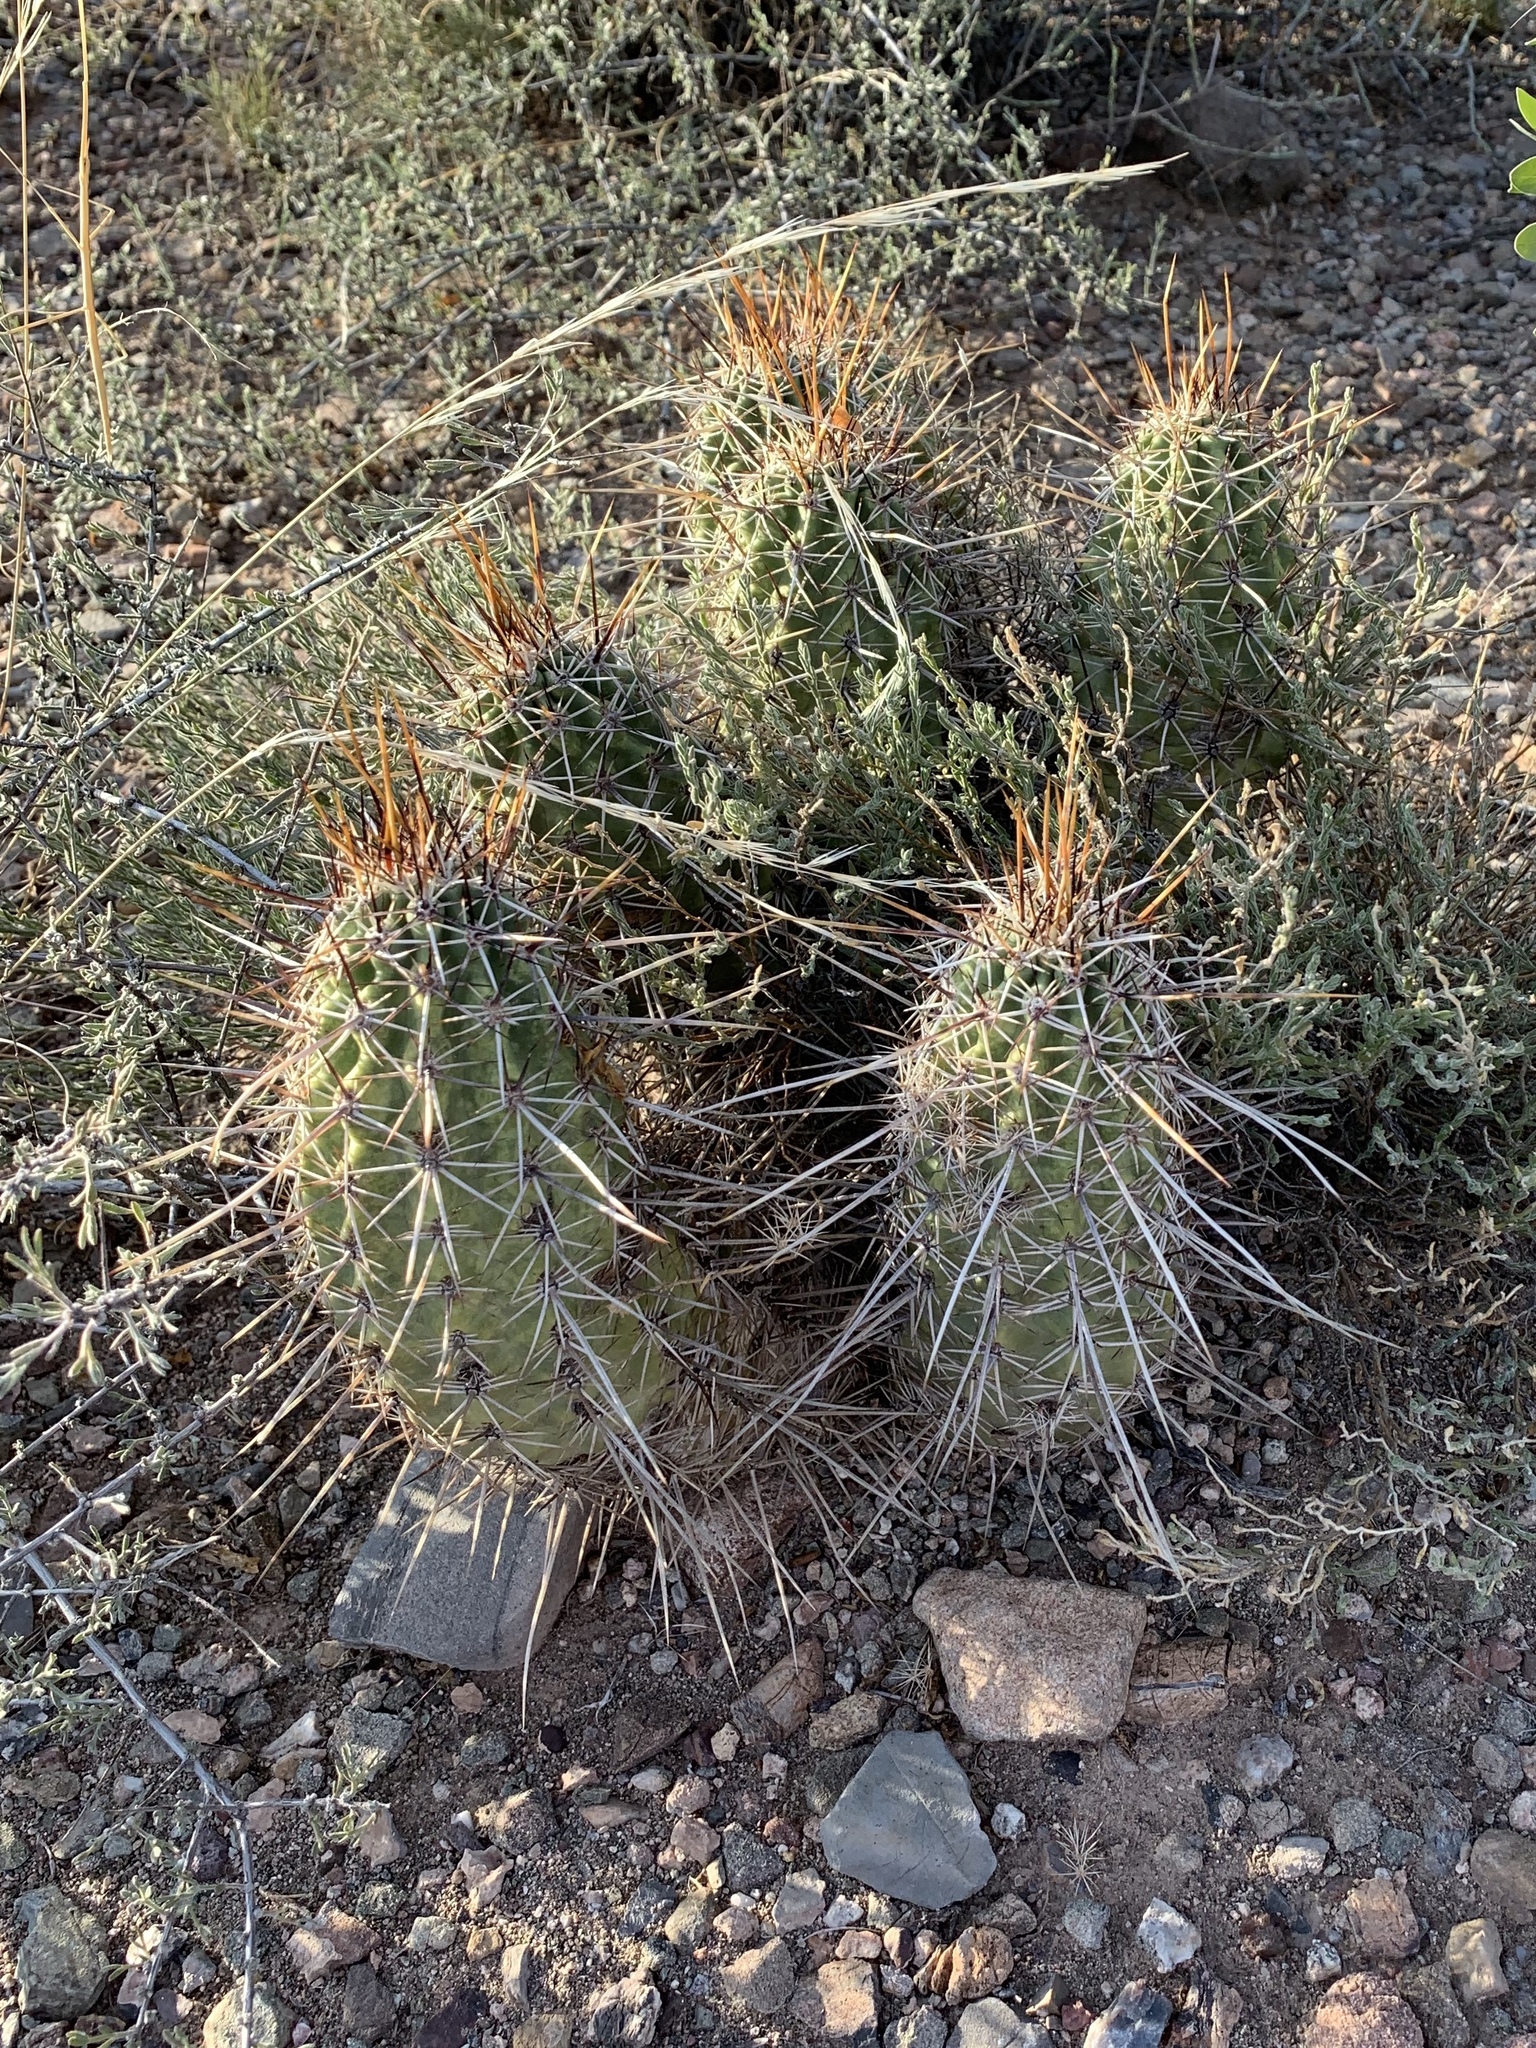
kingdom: Plantae
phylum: Tracheophyta
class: Magnoliopsida
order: Caryophyllales
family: Cactaceae
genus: Echinocereus
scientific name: Echinocereus fasciculatus
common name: Bundle hedgehog
